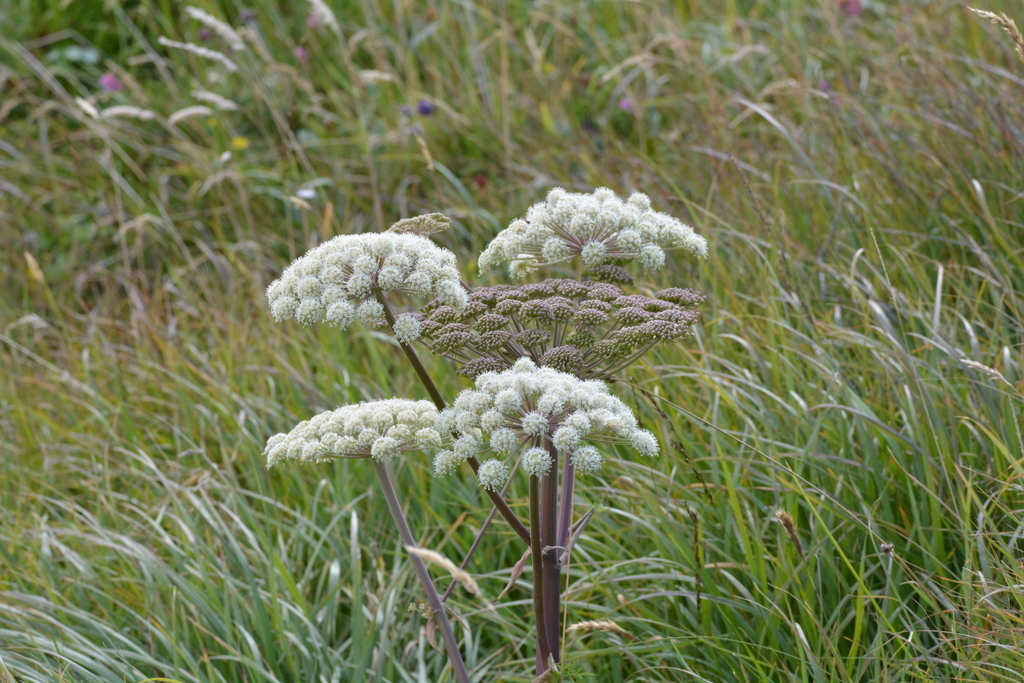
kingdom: Plantae
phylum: Tracheophyta
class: Magnoliopsida
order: Apiales
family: Apiaceae
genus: Angelica
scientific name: Angelica sylvestris
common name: Wild angelica
